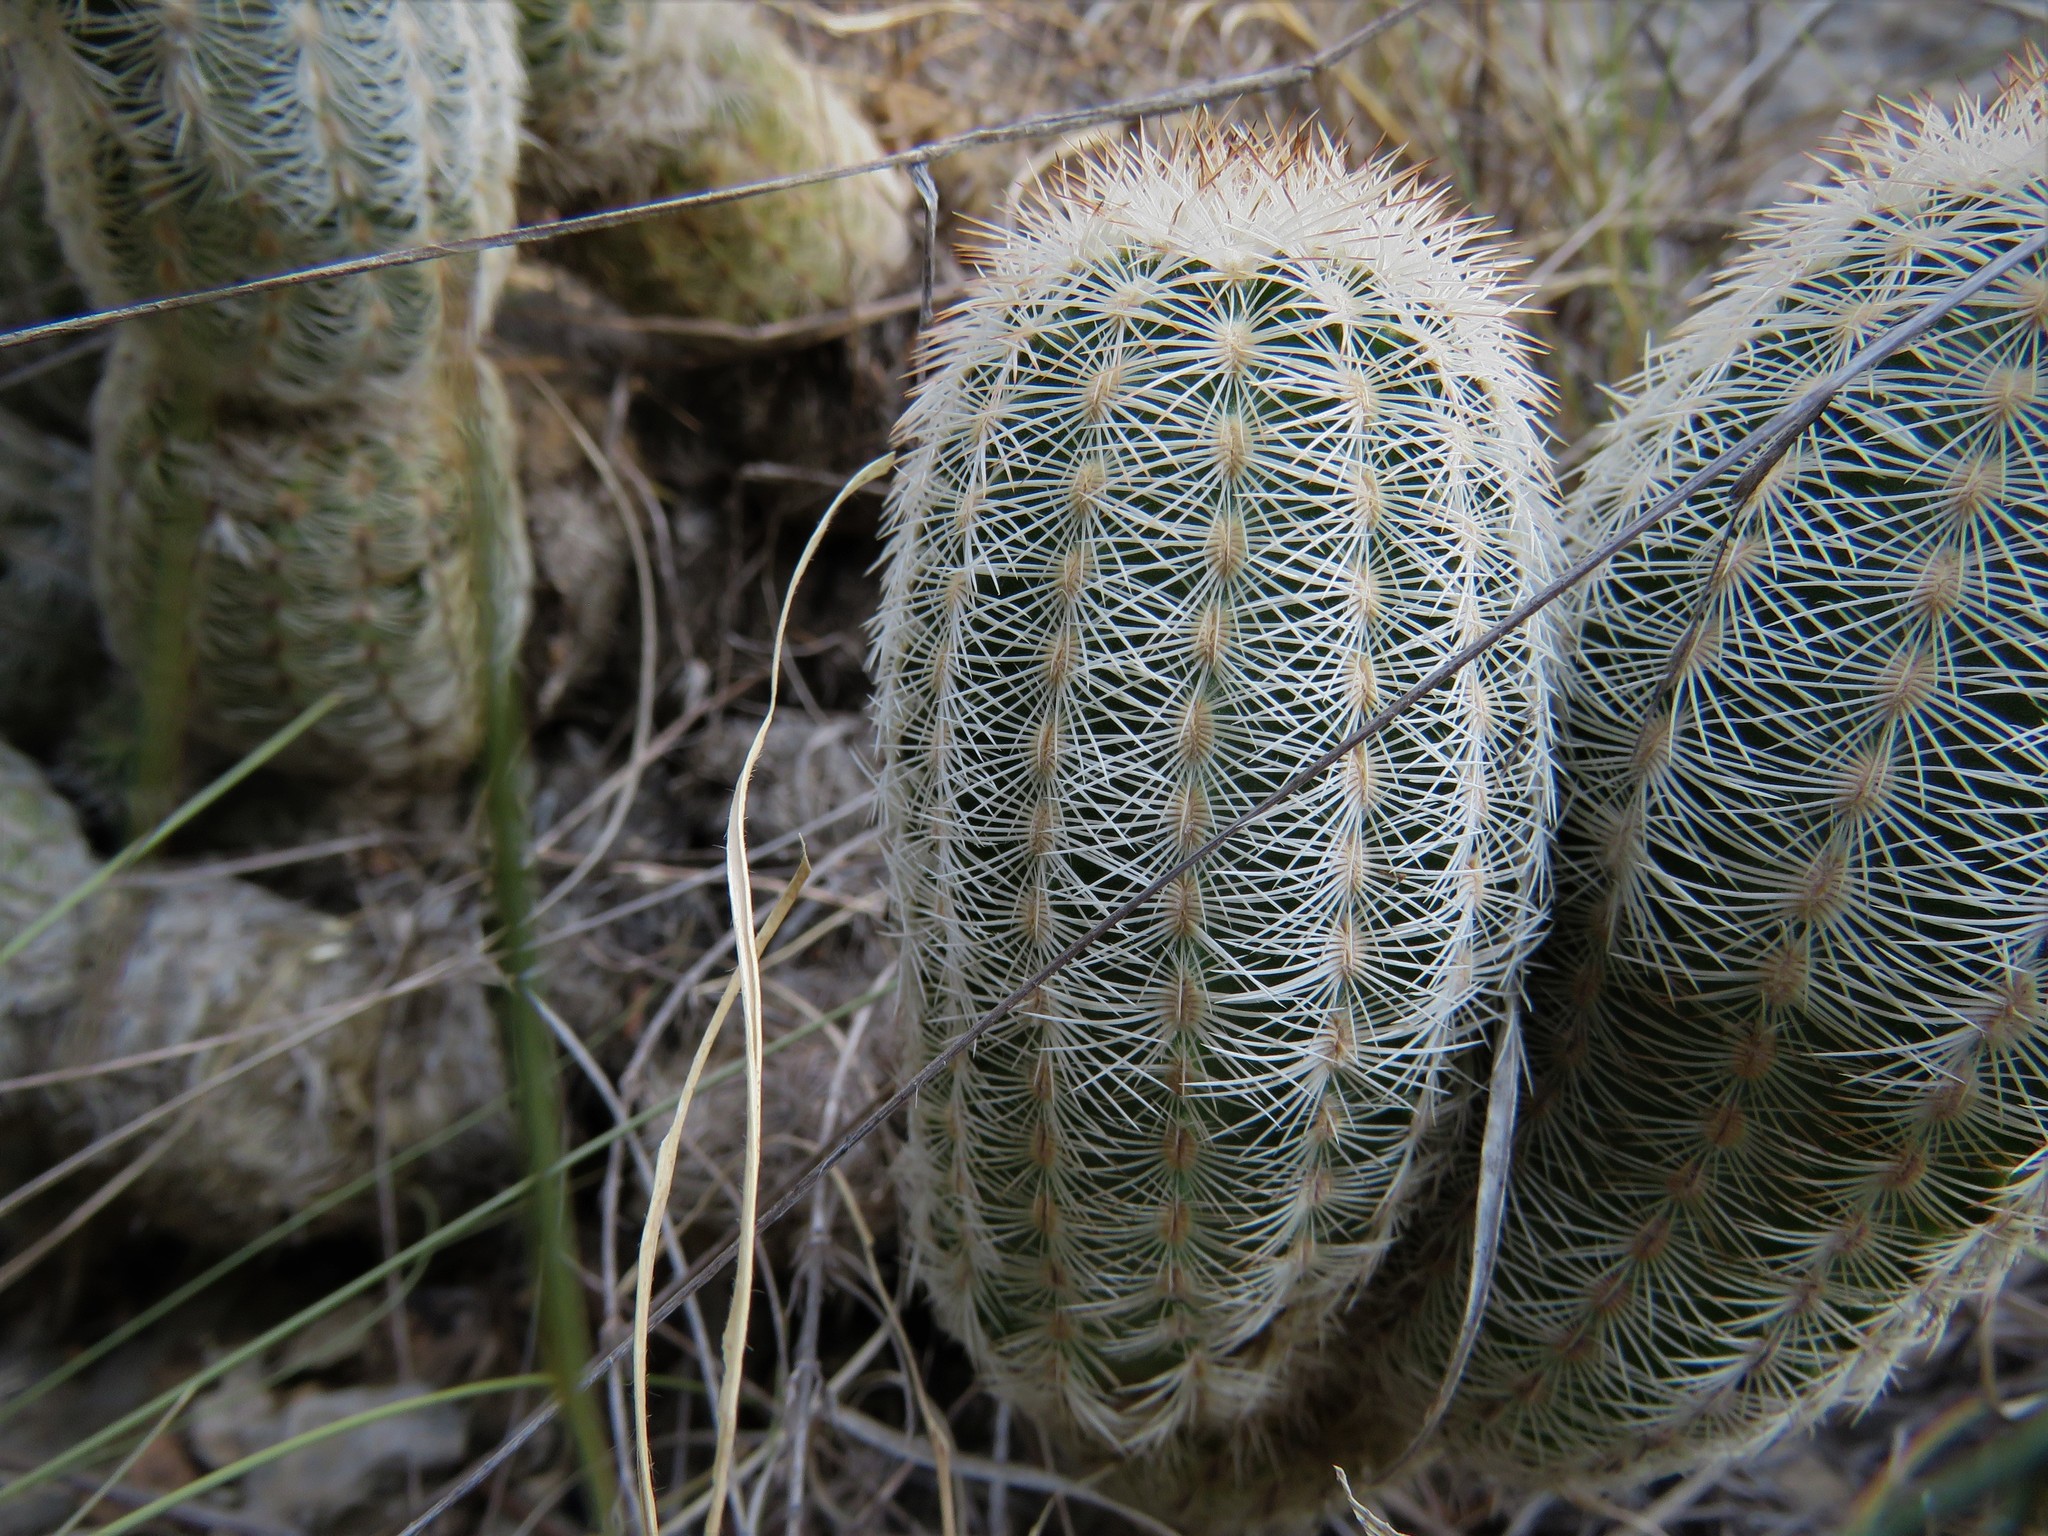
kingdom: Plantae
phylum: Tracheophyta
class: Magnoliopsida
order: Caryophyllales
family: Cactaceae
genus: Echinocereus
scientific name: Echinocereus reichenbachii
